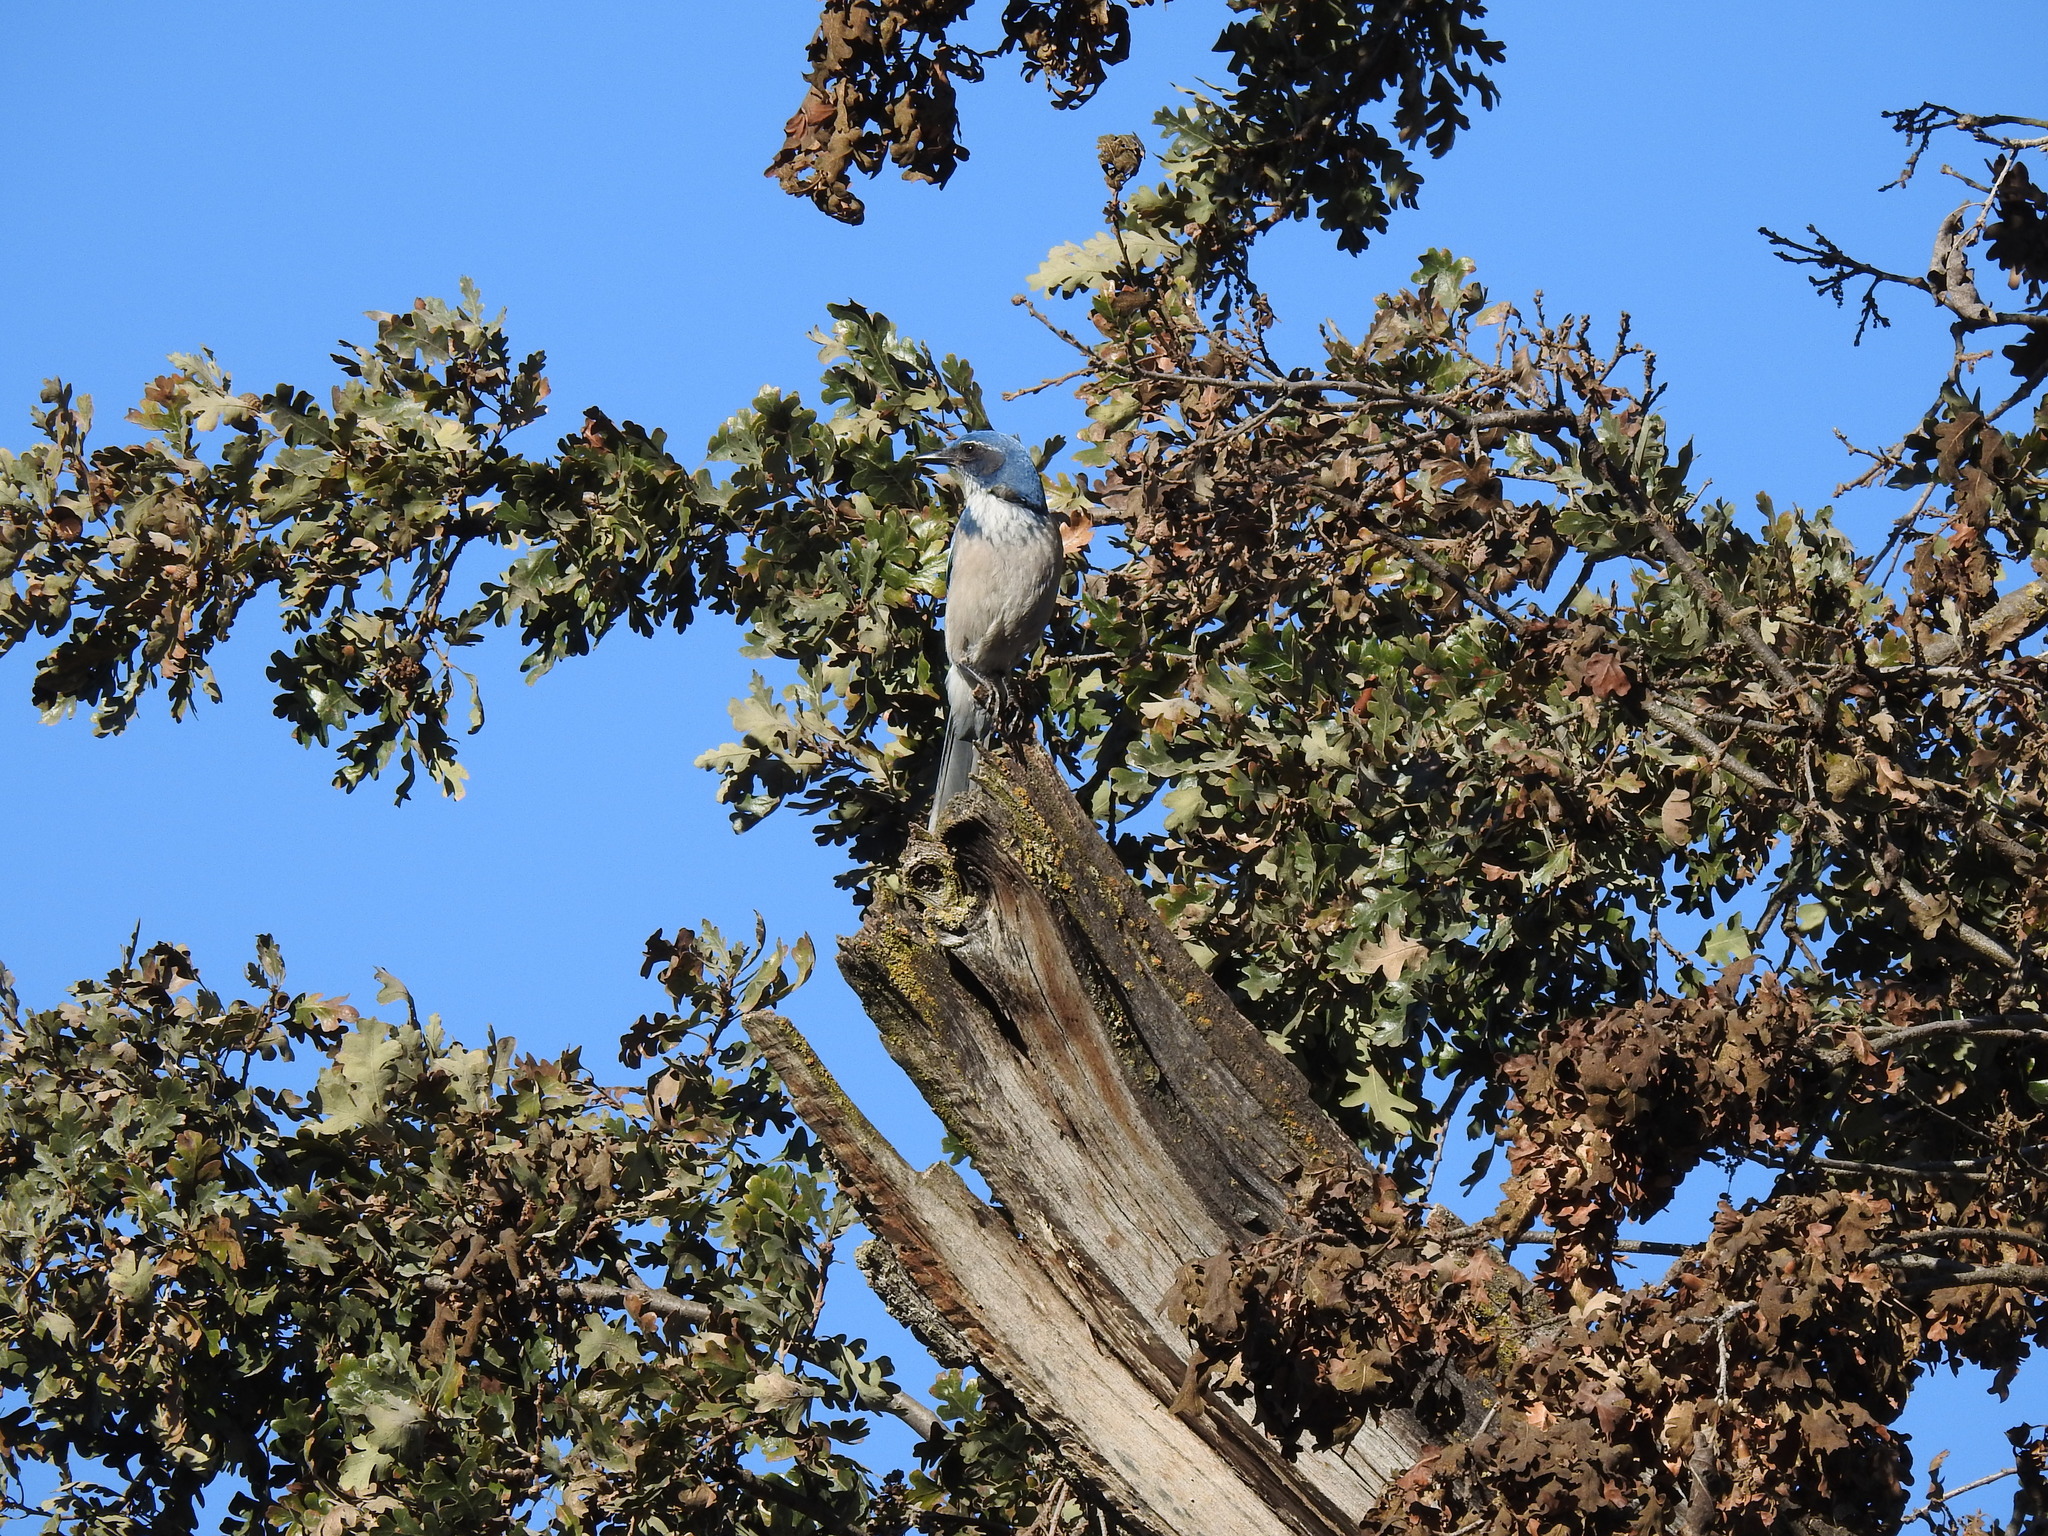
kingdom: Animalia
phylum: Chordata
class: Aves
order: Passeriformes
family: Corvidae
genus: Aphelocoma
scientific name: Aphelocoma californica
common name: California scrub-jay
